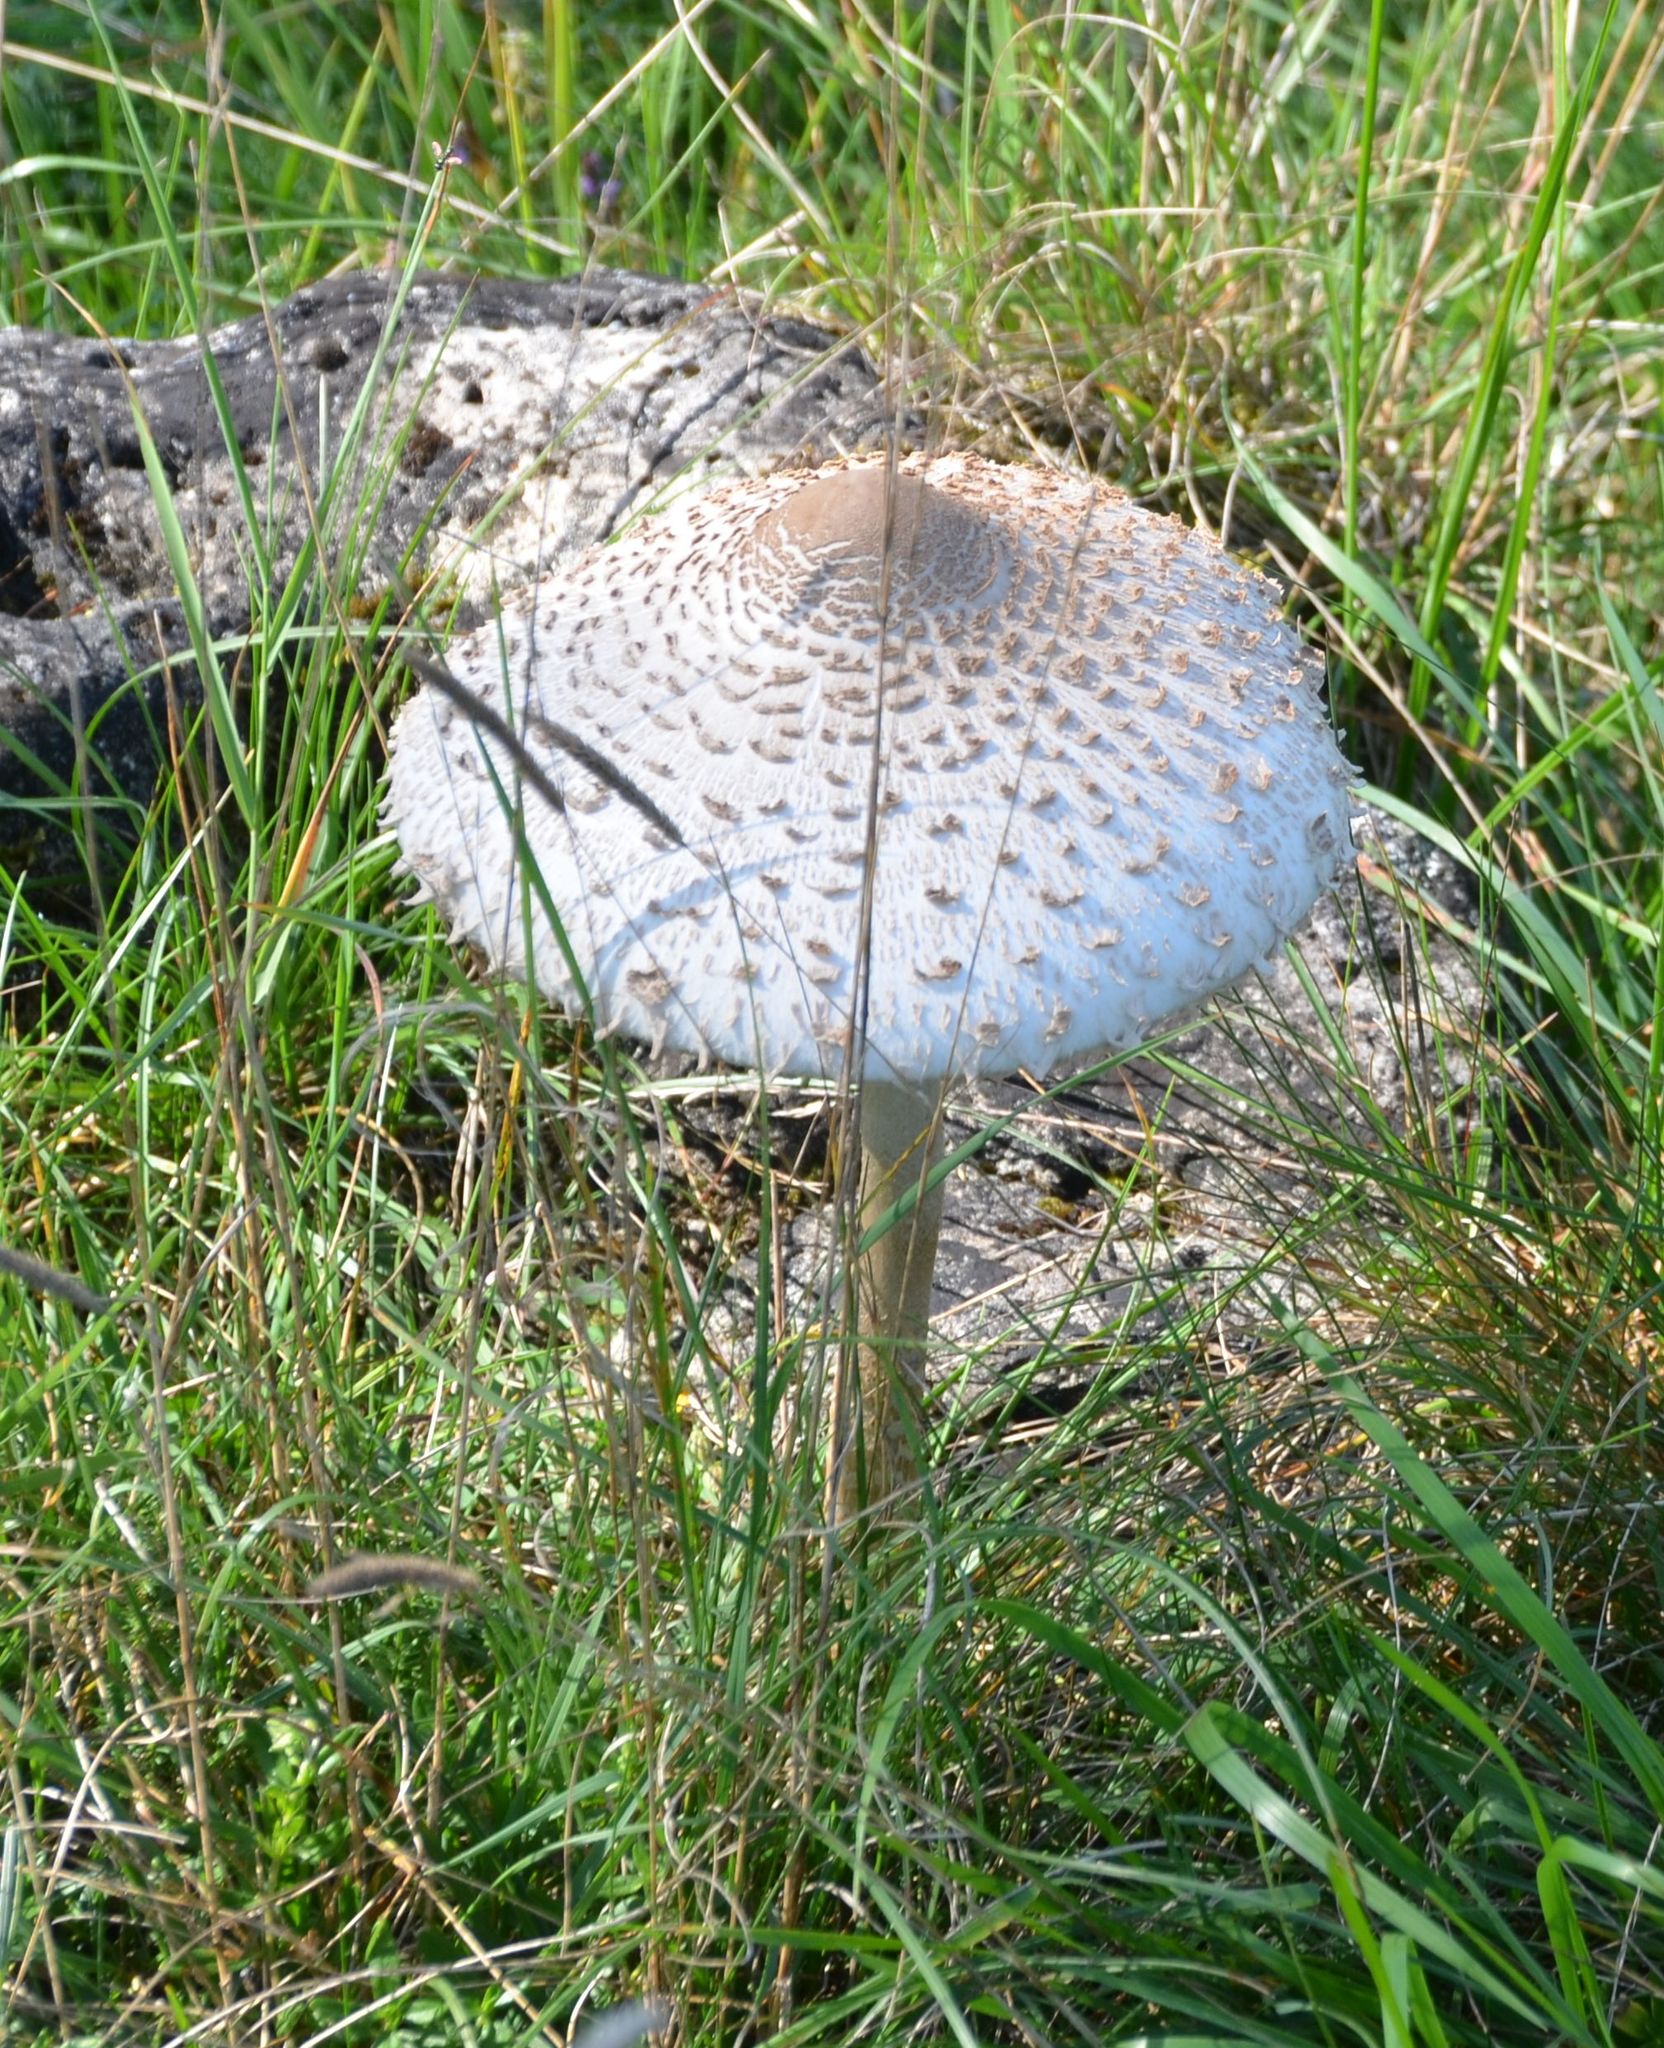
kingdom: Fungi
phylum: Basidiomycota
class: Agaricomycetes
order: Agaricales
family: Agaricaceae
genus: Macrolepiota
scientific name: Macrolepiota procera
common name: Parasol
